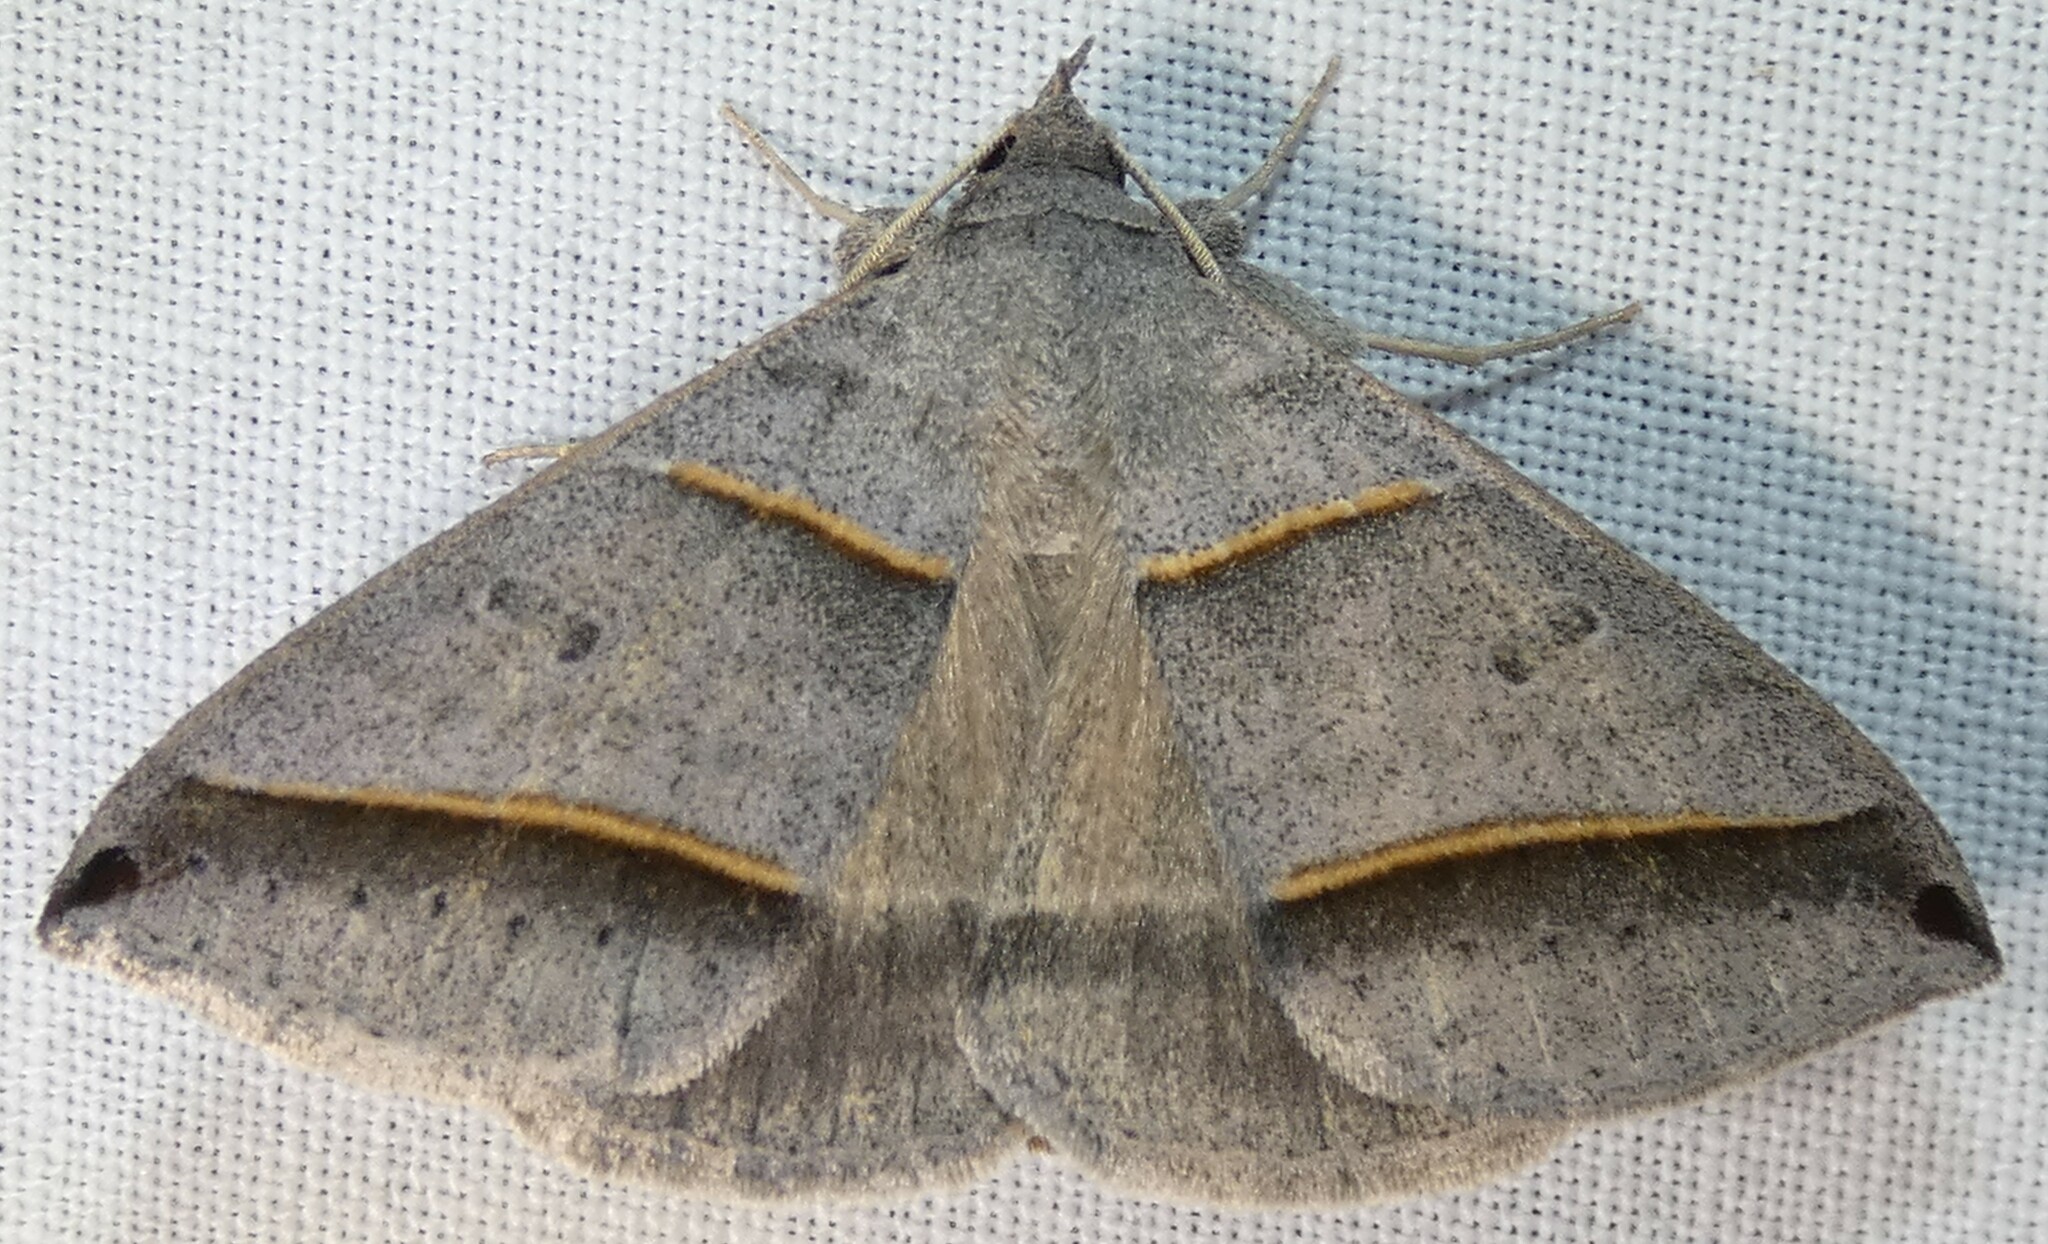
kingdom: Animalia
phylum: Arthropoda
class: Insecta
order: Lepidoptera
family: Erebidae
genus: Ptichodis
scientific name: Ptichodis vinculum
